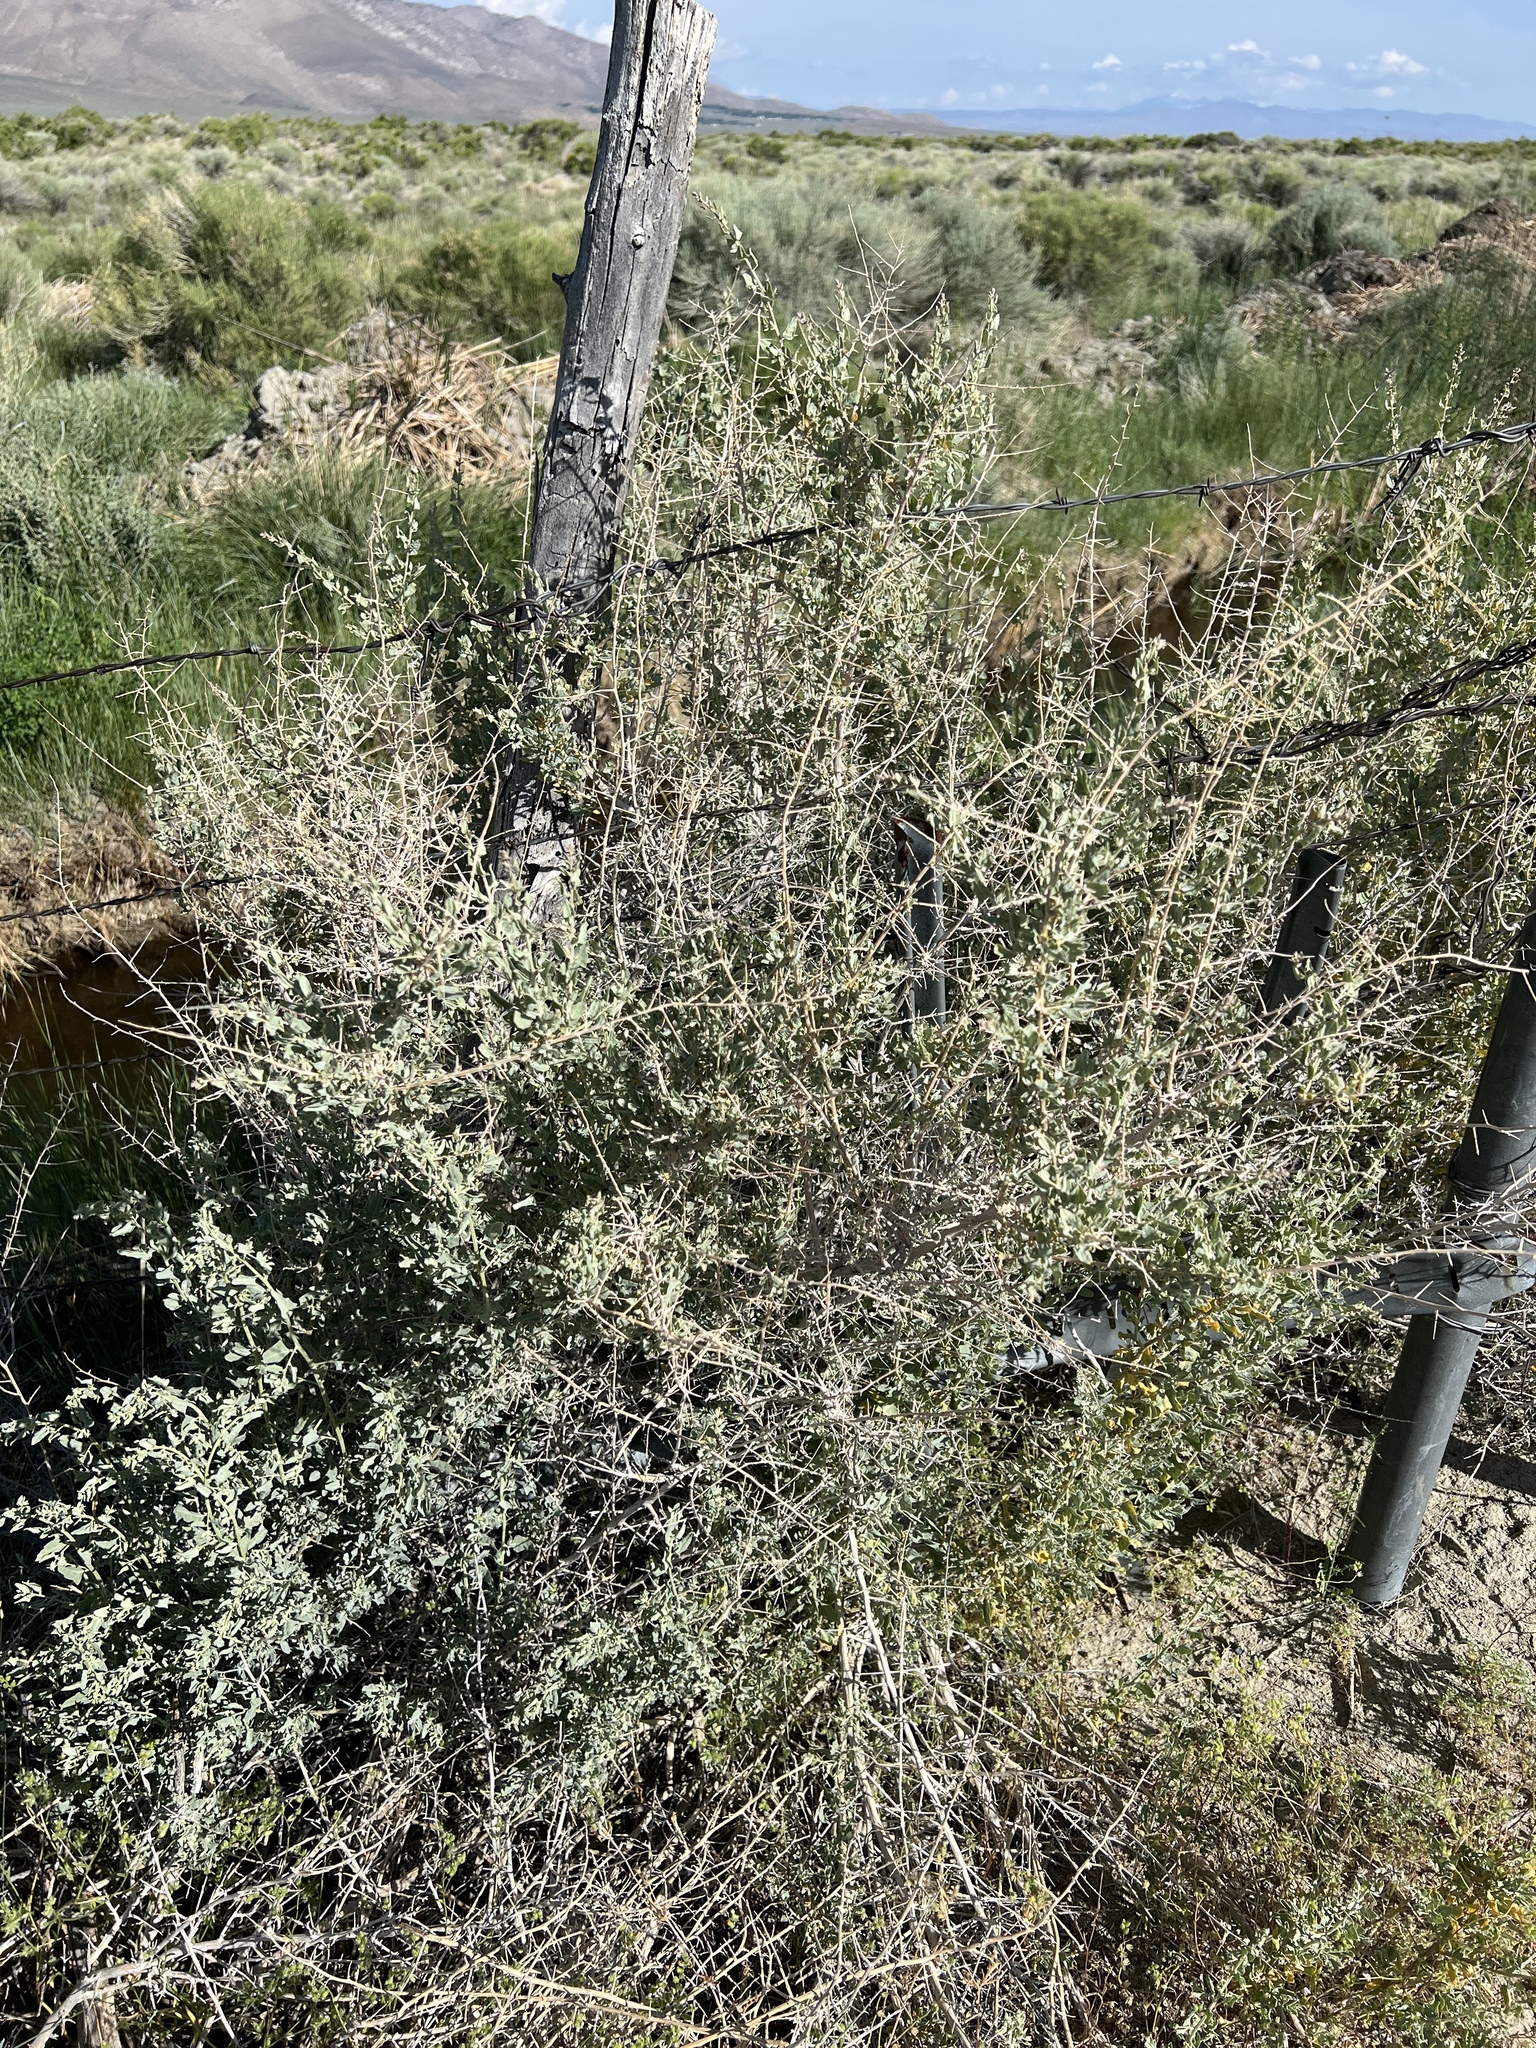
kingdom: Plantae
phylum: Tracheophyta
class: Magnoliopsida
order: Caryophyllales
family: Amaranthaceae
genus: Atriplex
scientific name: Atriplex torreyi
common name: Torrey's saltbush
